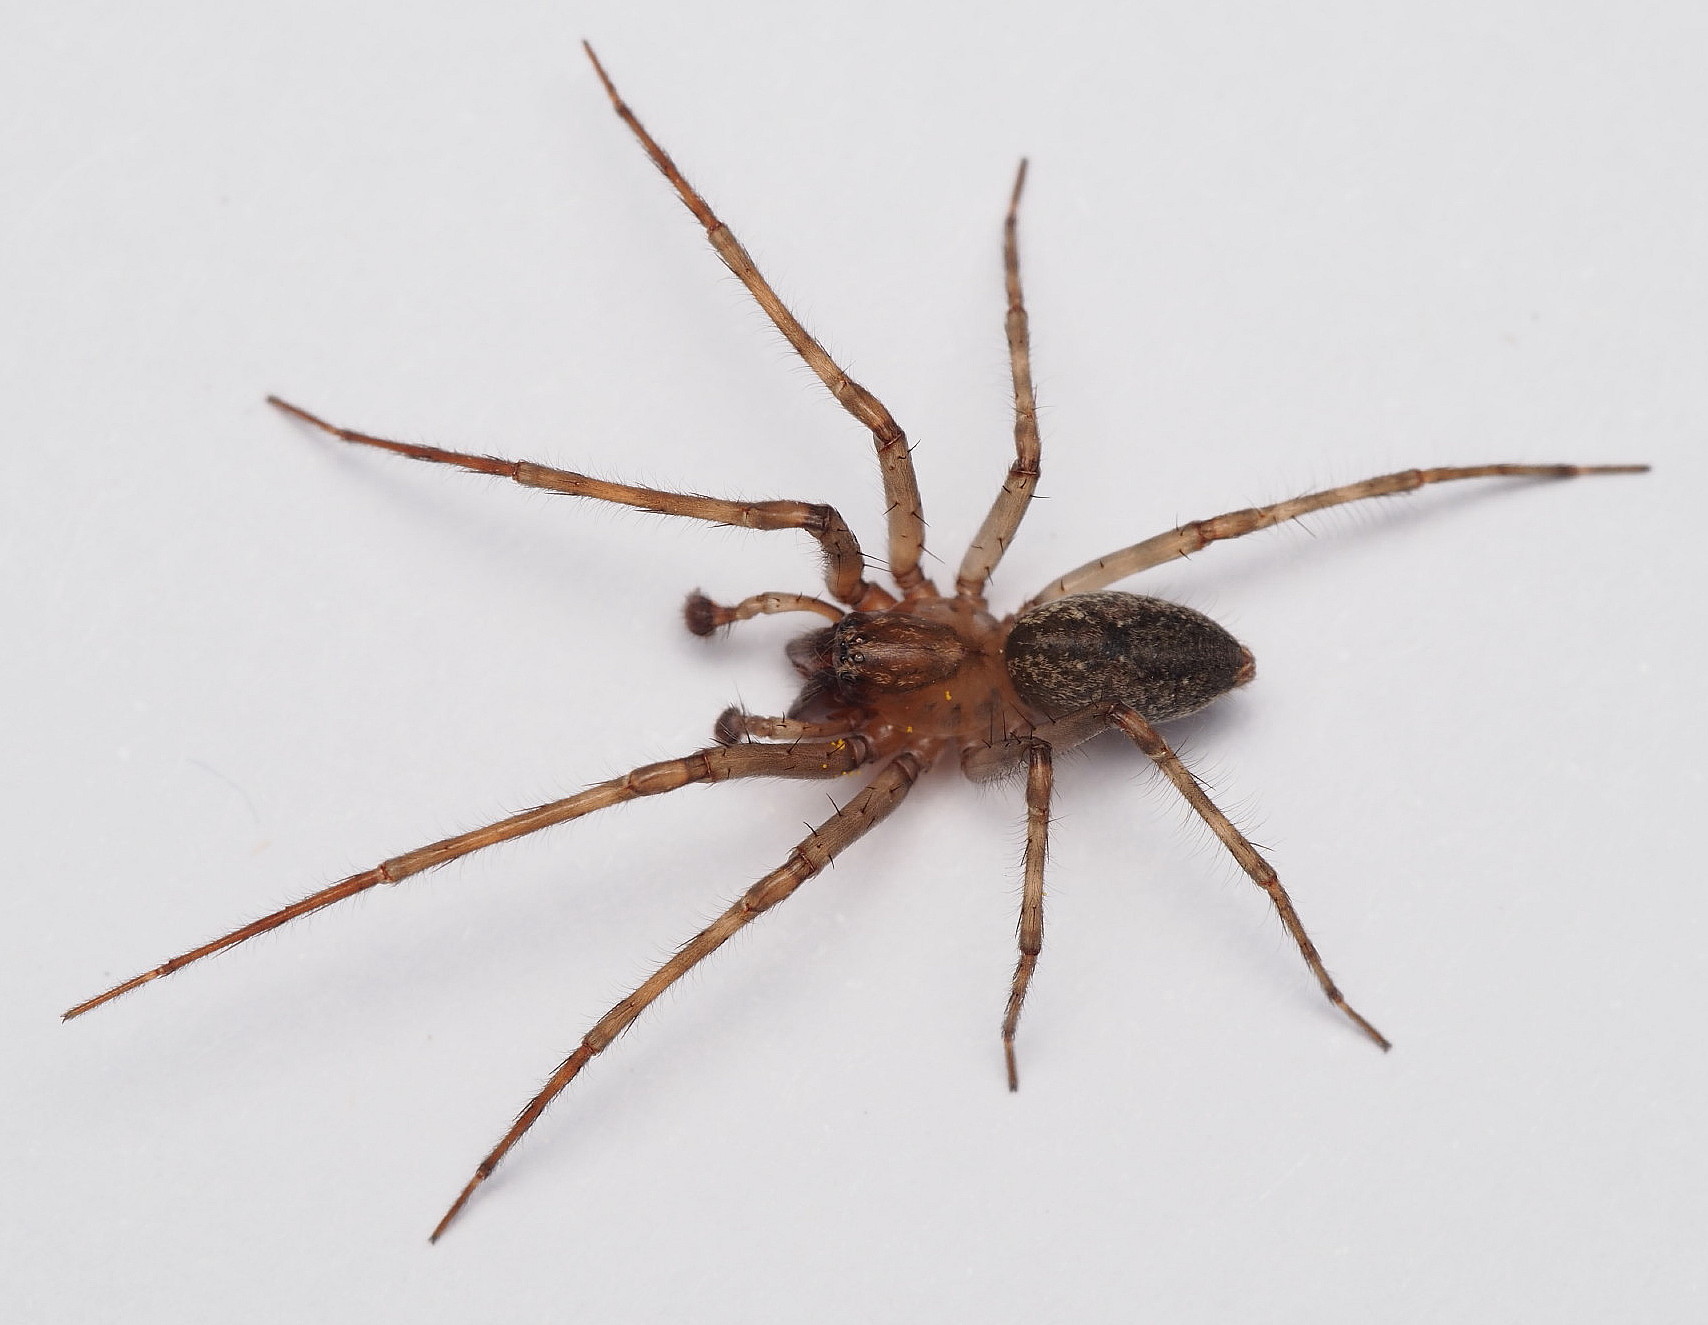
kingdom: Animalia
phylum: Arthropoda
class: Arachnida
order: Araneae
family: Desidae
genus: Nuisiana
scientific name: Nuisiana arboris
